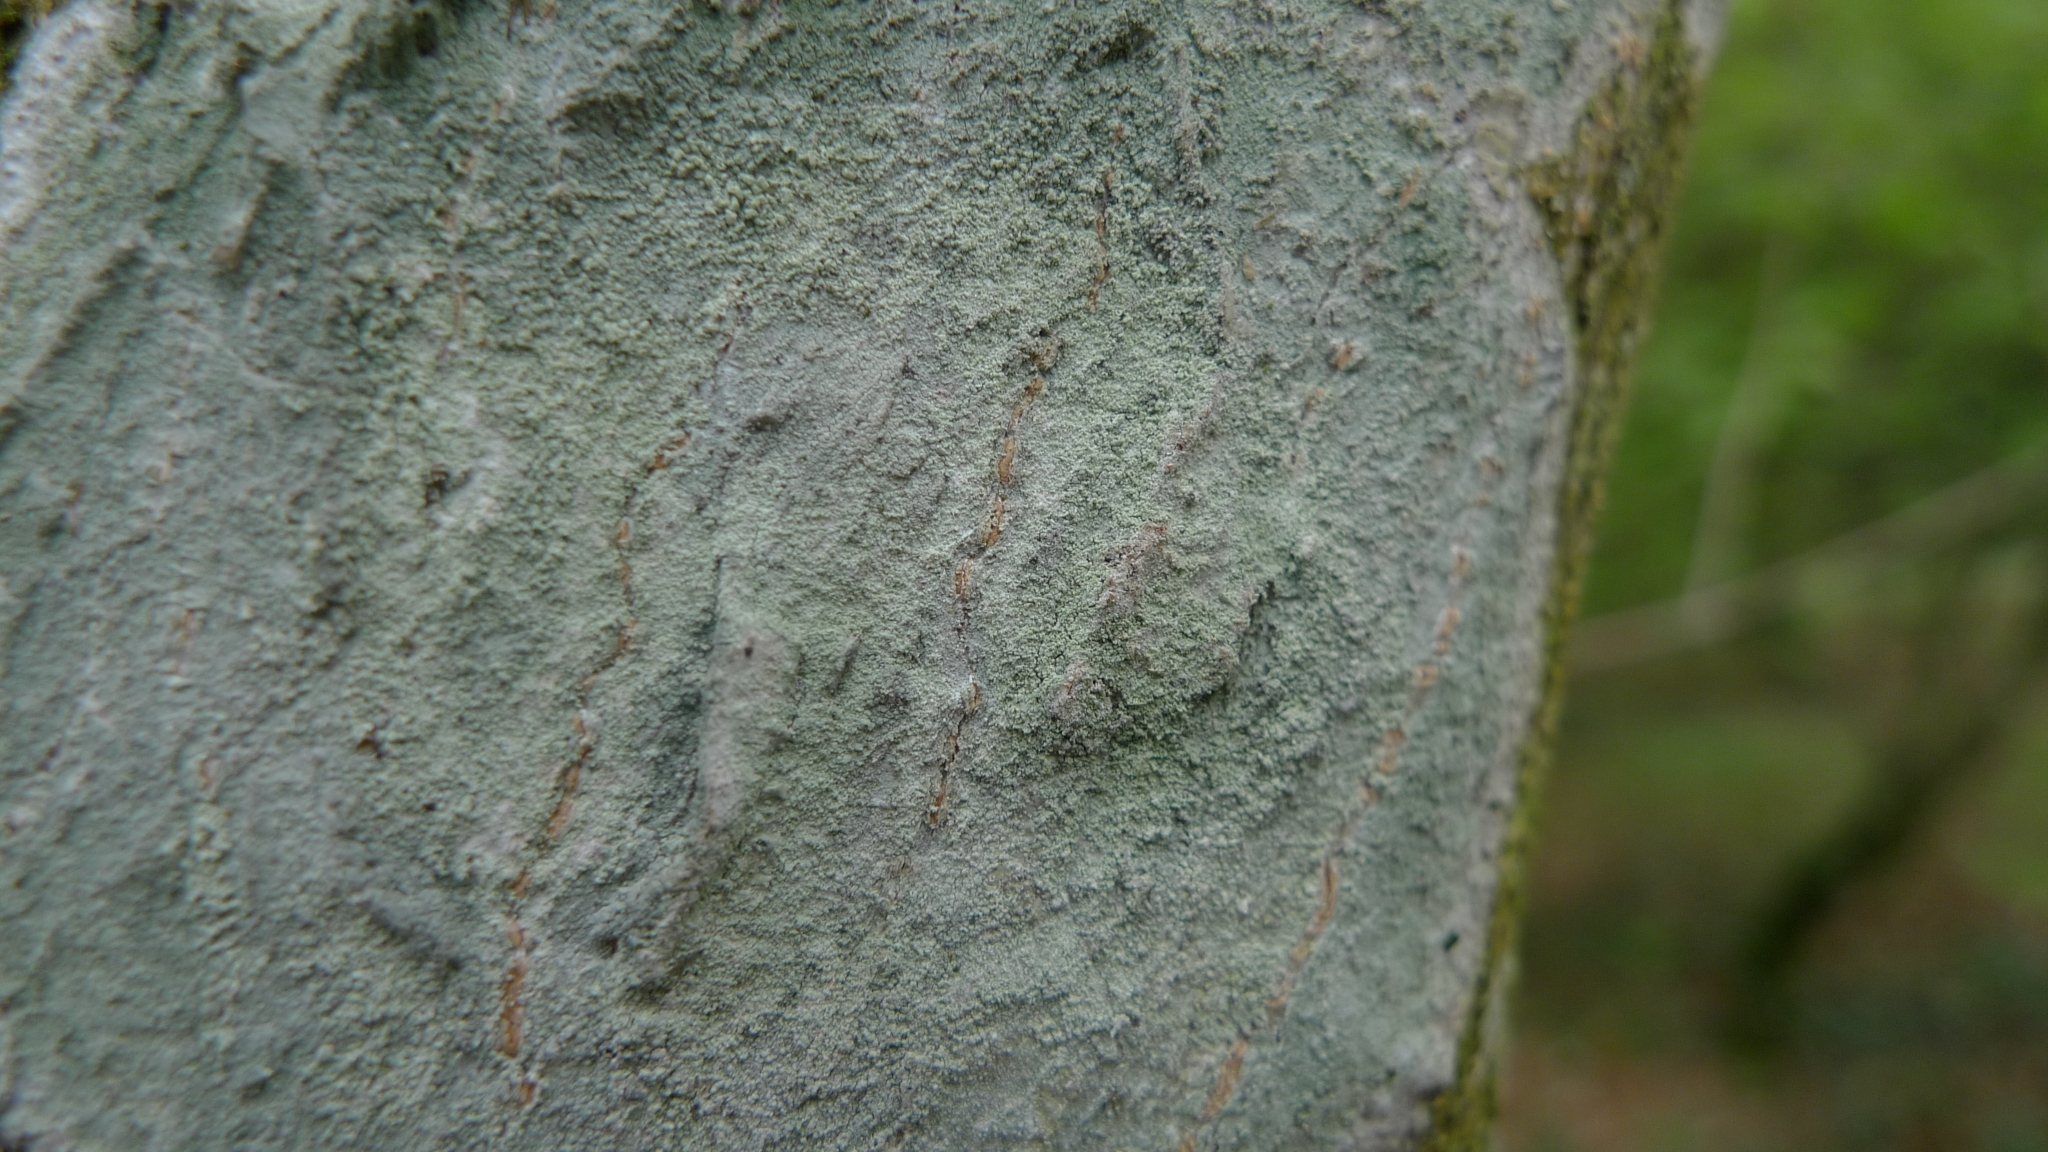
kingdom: Fungi
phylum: Ascomycota
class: Lecanoromycetes
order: Ostropales
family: Phlyctidaceae
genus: Phlyctis
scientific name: Phlyctis argena
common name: Whitewash lichen
